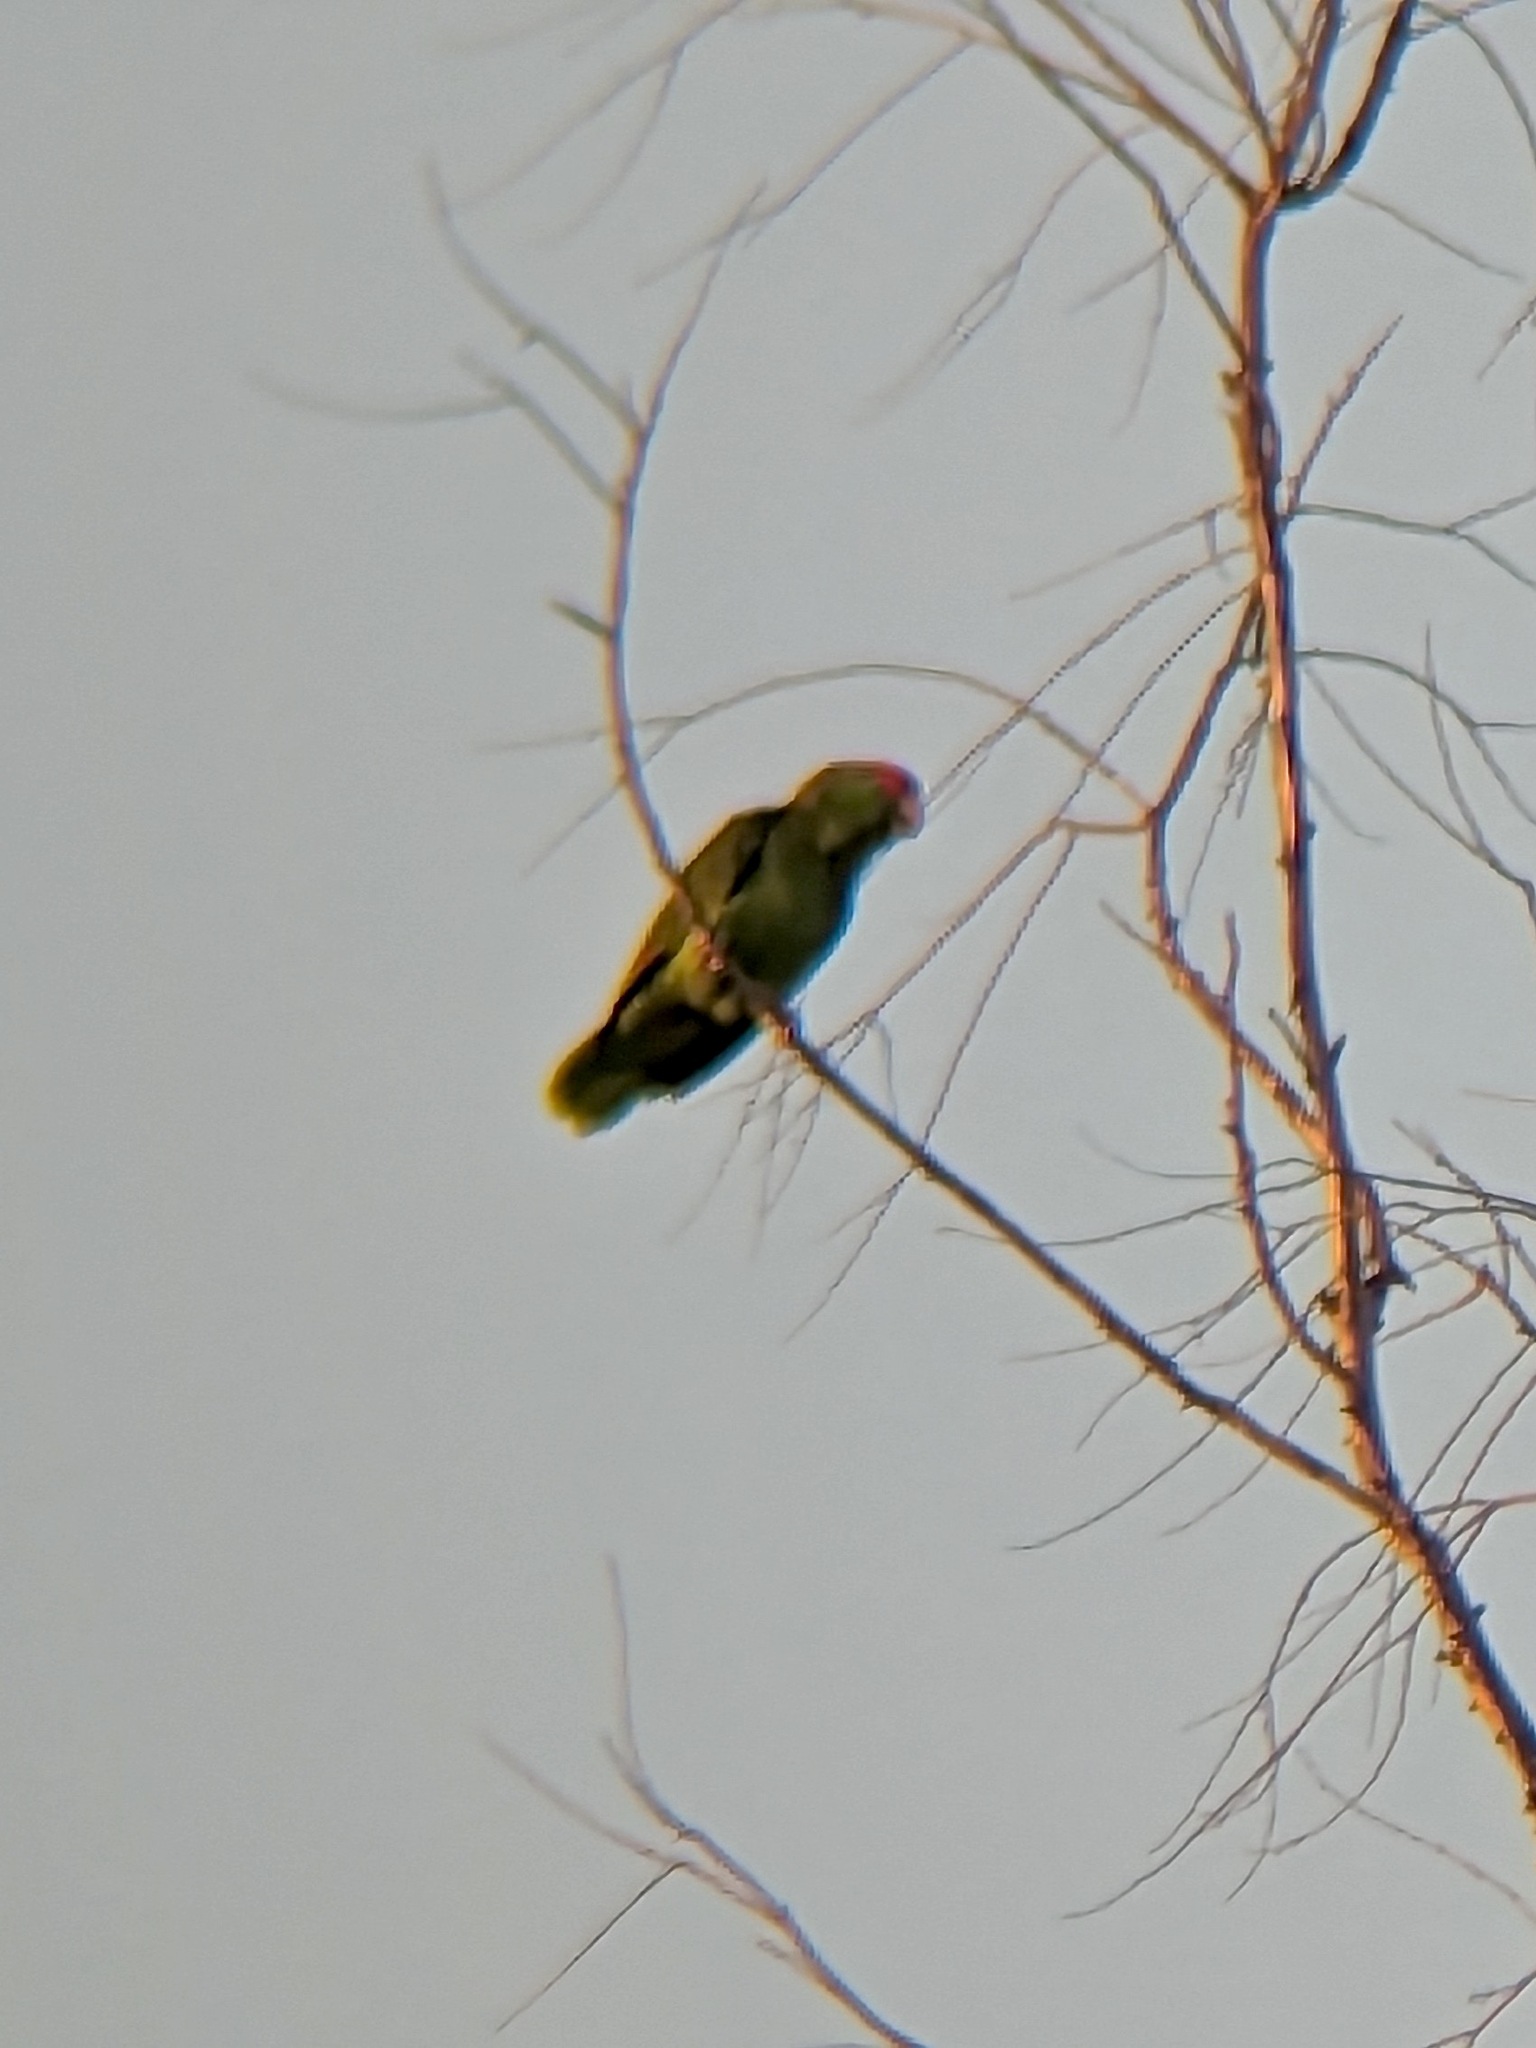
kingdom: Animalia
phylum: Chordata
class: Aves
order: Psittaciformes
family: Psittacidae
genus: Amazona
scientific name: Amazona viridigenalis
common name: Red-crowned amazon
